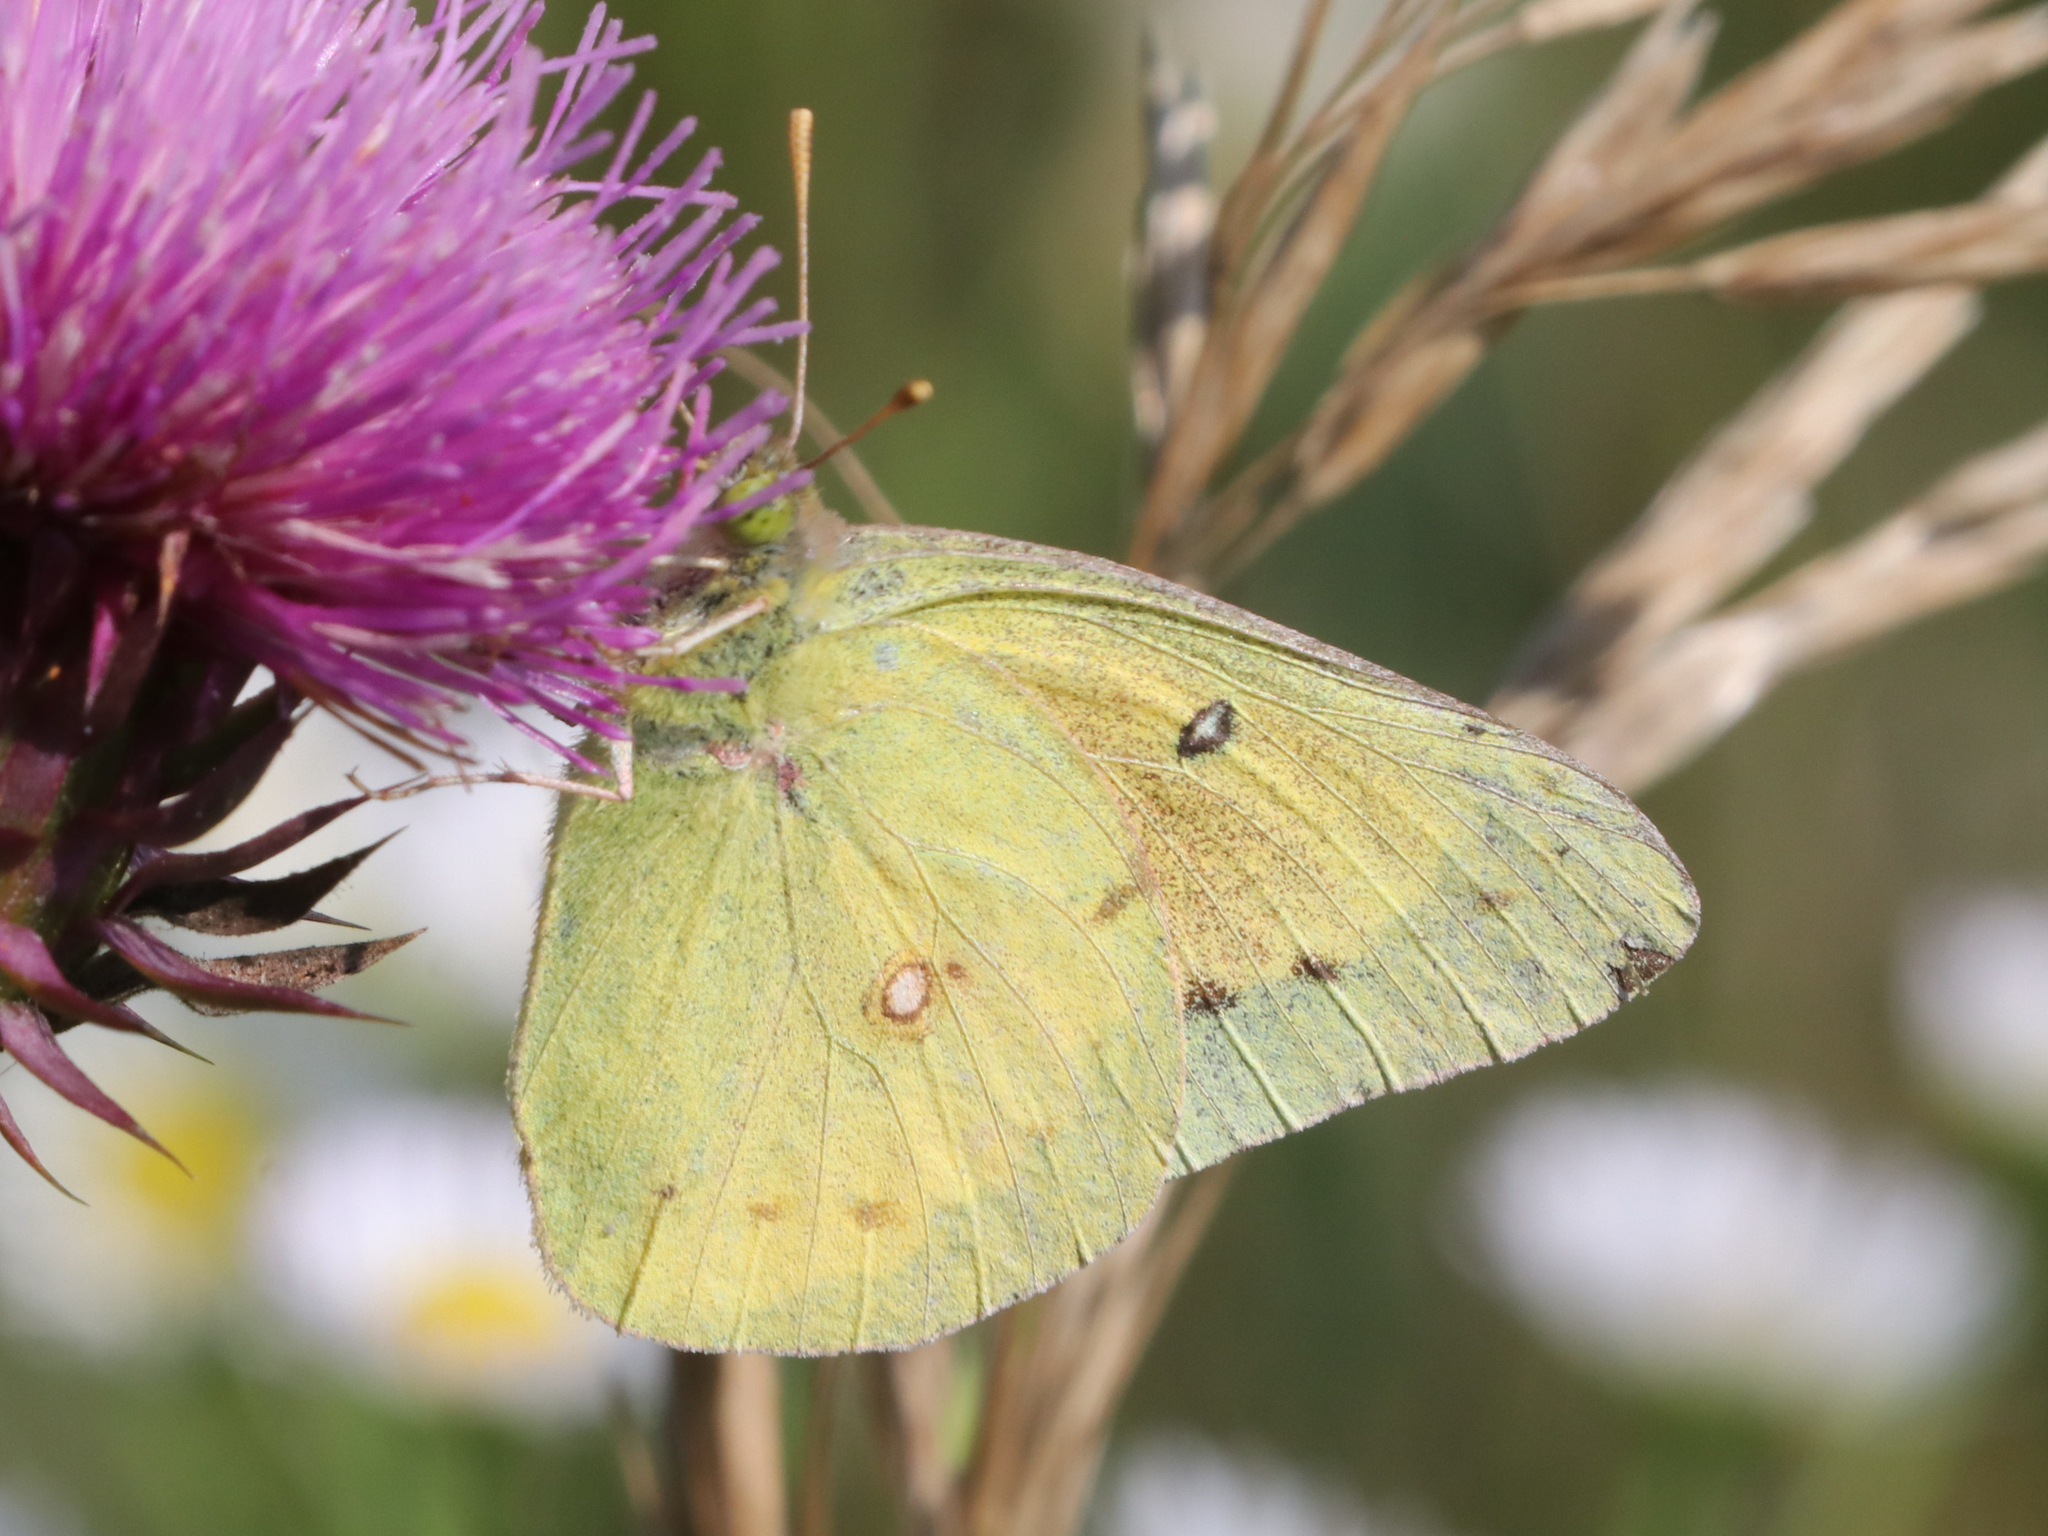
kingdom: Animalia
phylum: Arthropoda
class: Insecta
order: Lepidoptera
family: Pieridae
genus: Colias
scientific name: Colias eurytheme
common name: Alfalfa butterfly
